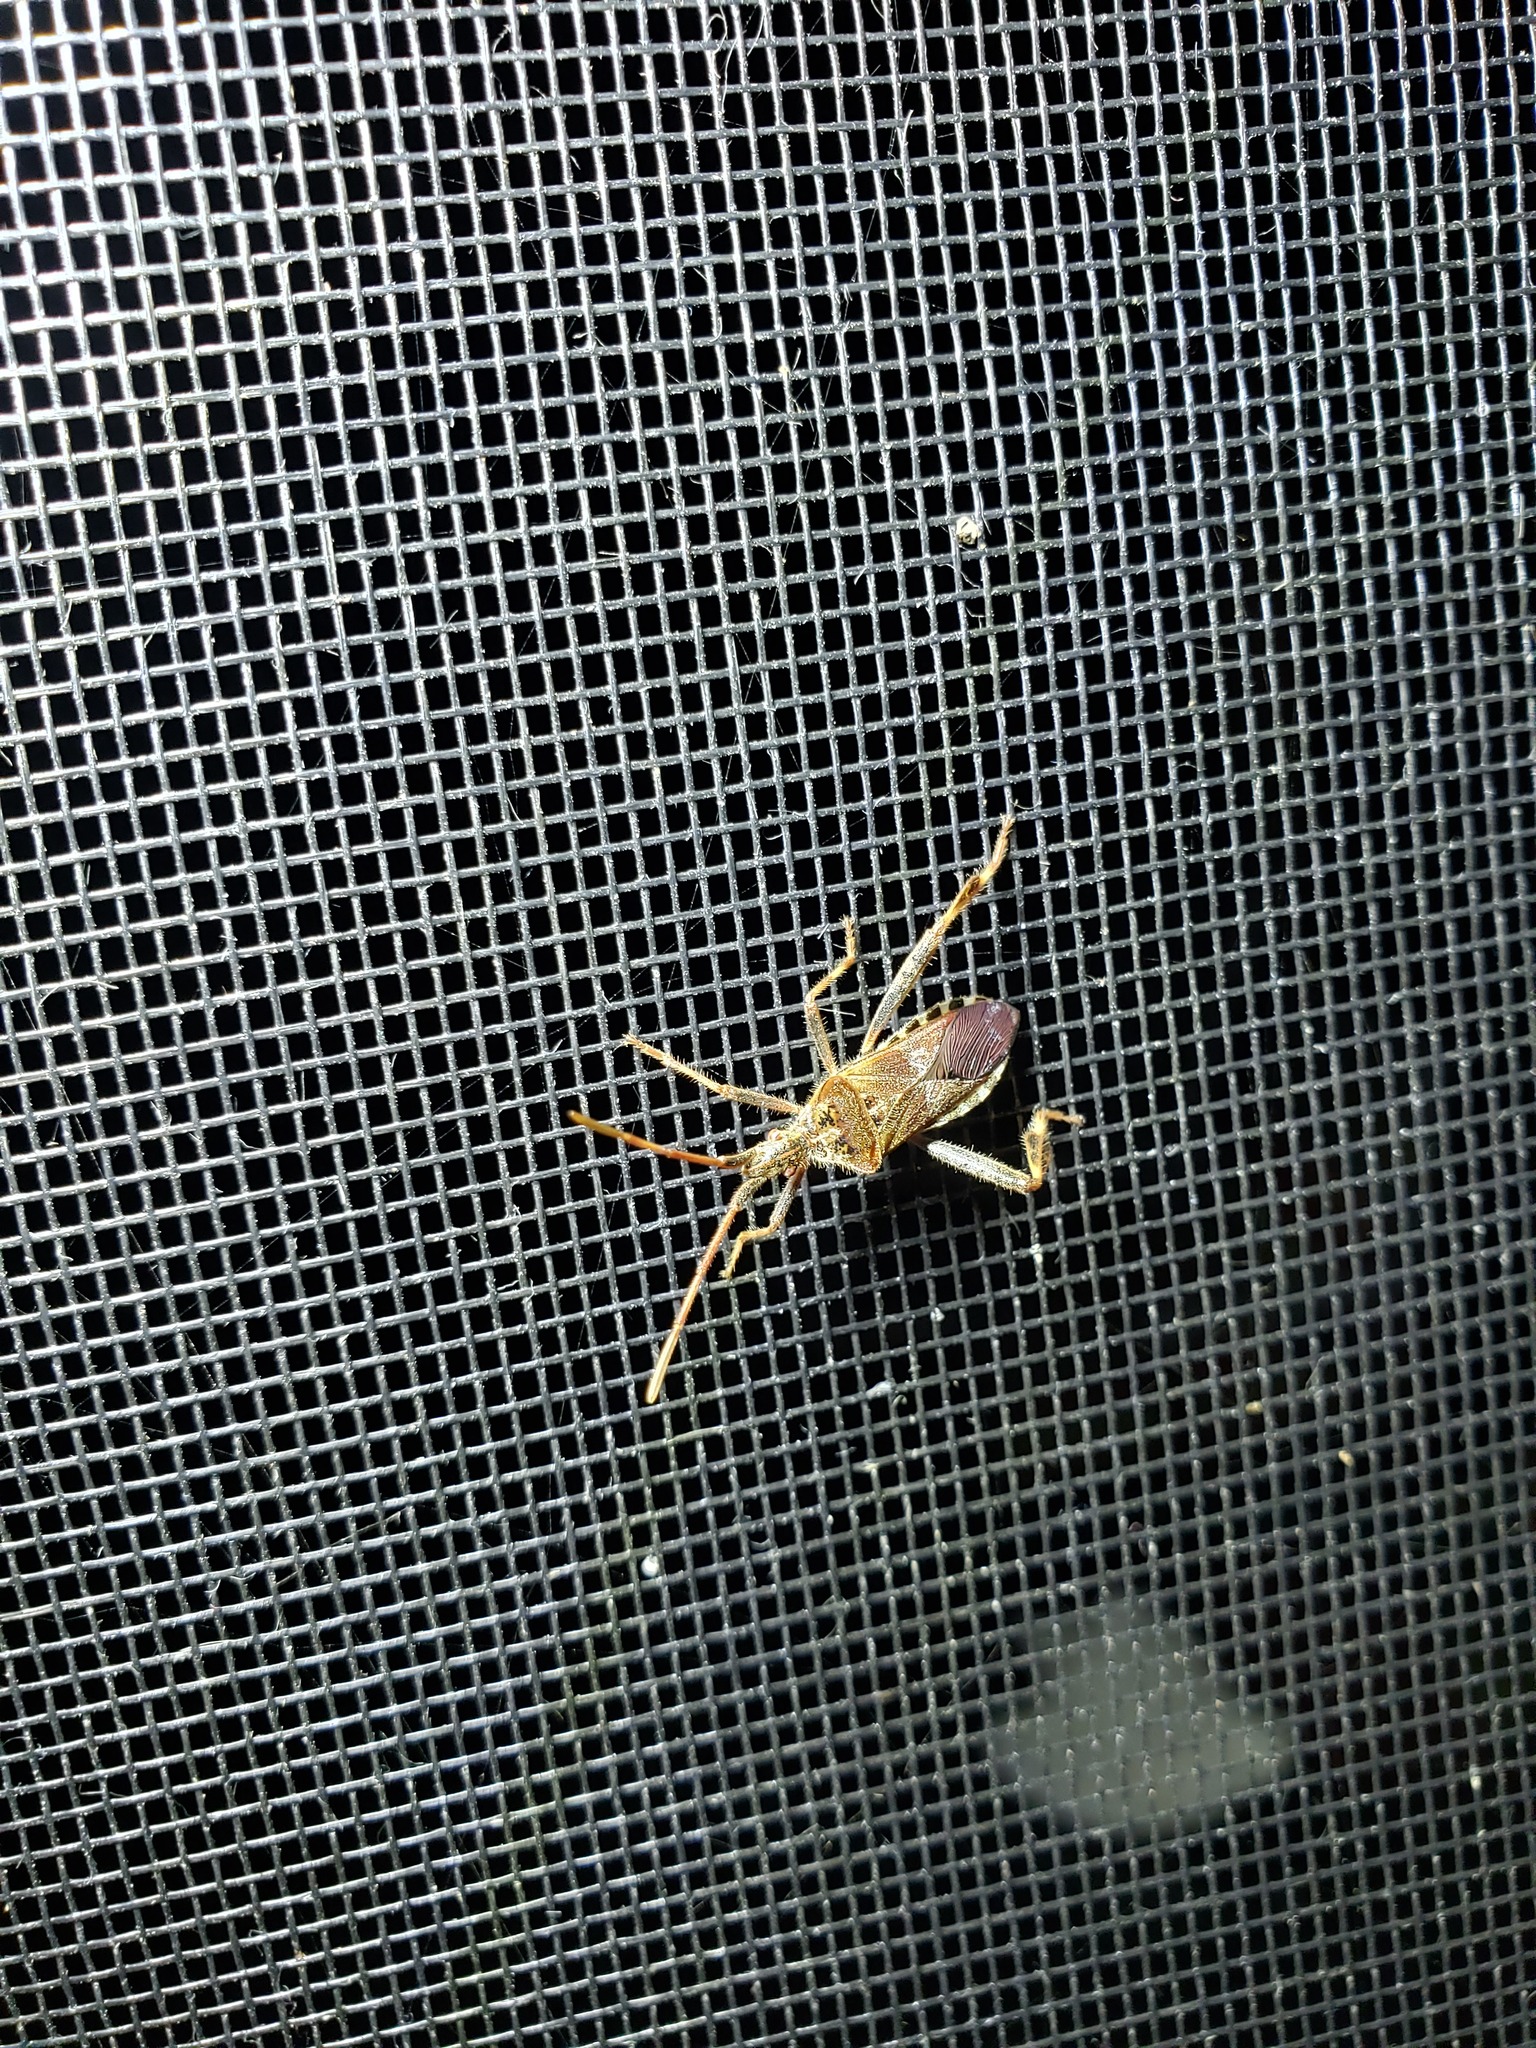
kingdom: Animalia
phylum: Arthropoda
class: Insecta
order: Hemiptera
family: Coreidae
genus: Leptoglossus
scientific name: Leptoglossus occidentalis
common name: Western conifer-seed bug
